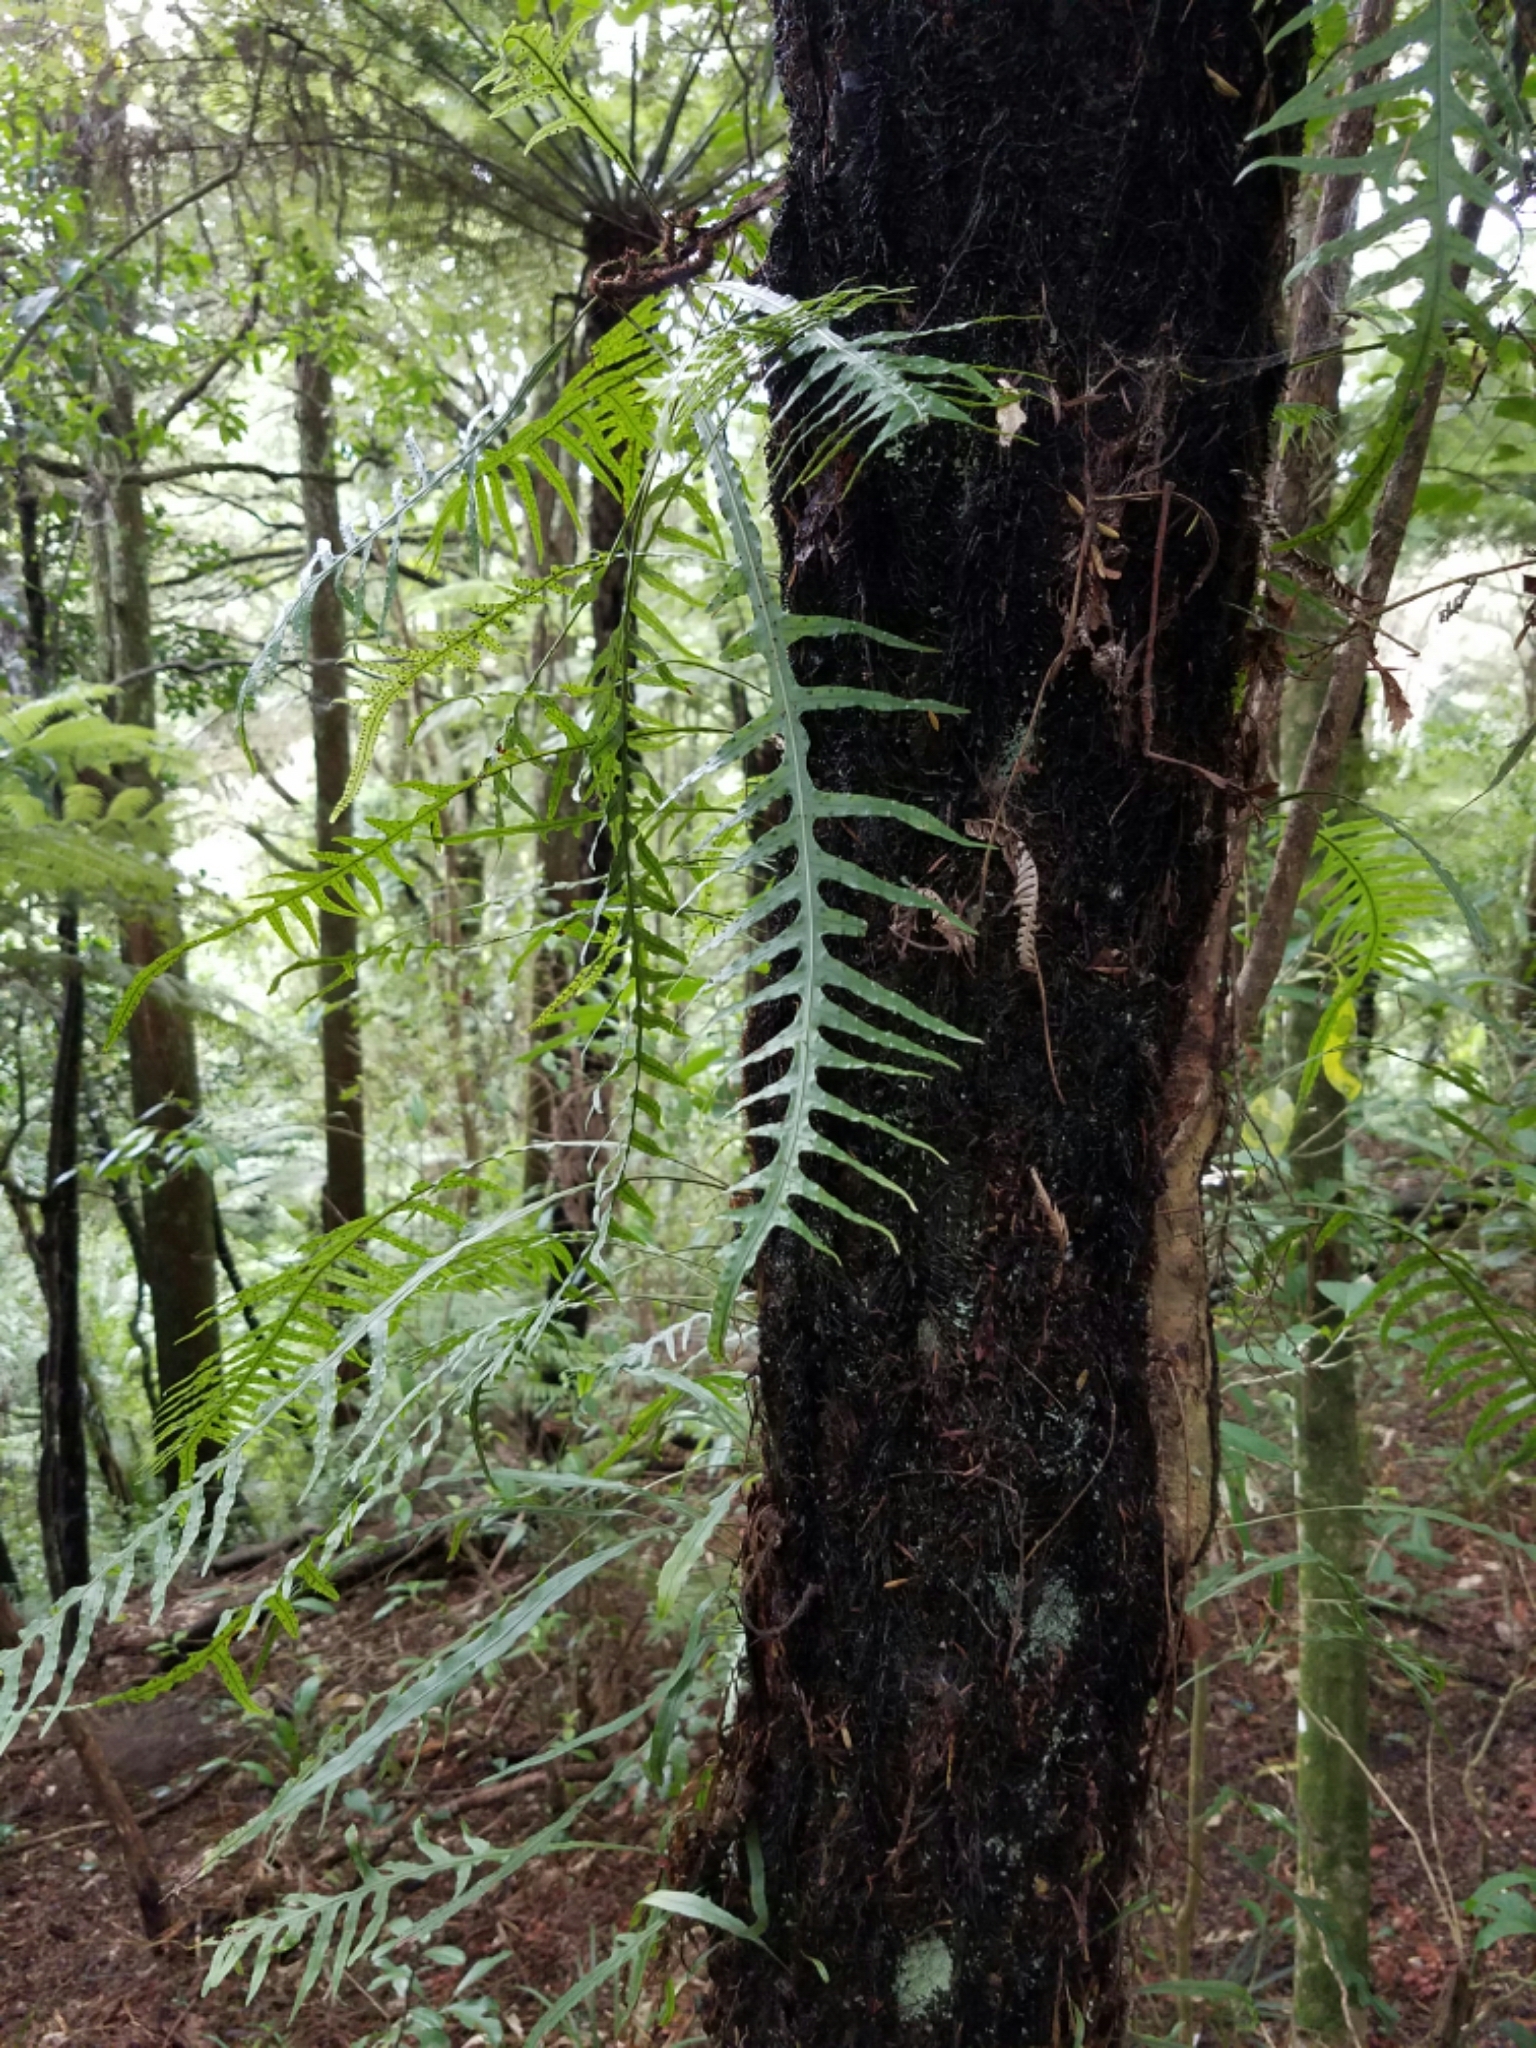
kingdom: Plantae
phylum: Tracheophyta
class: Polypodiopsida
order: Polypodiales
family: Polypodiaceae
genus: Lecanopteris
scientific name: Lecanopteris scandens
